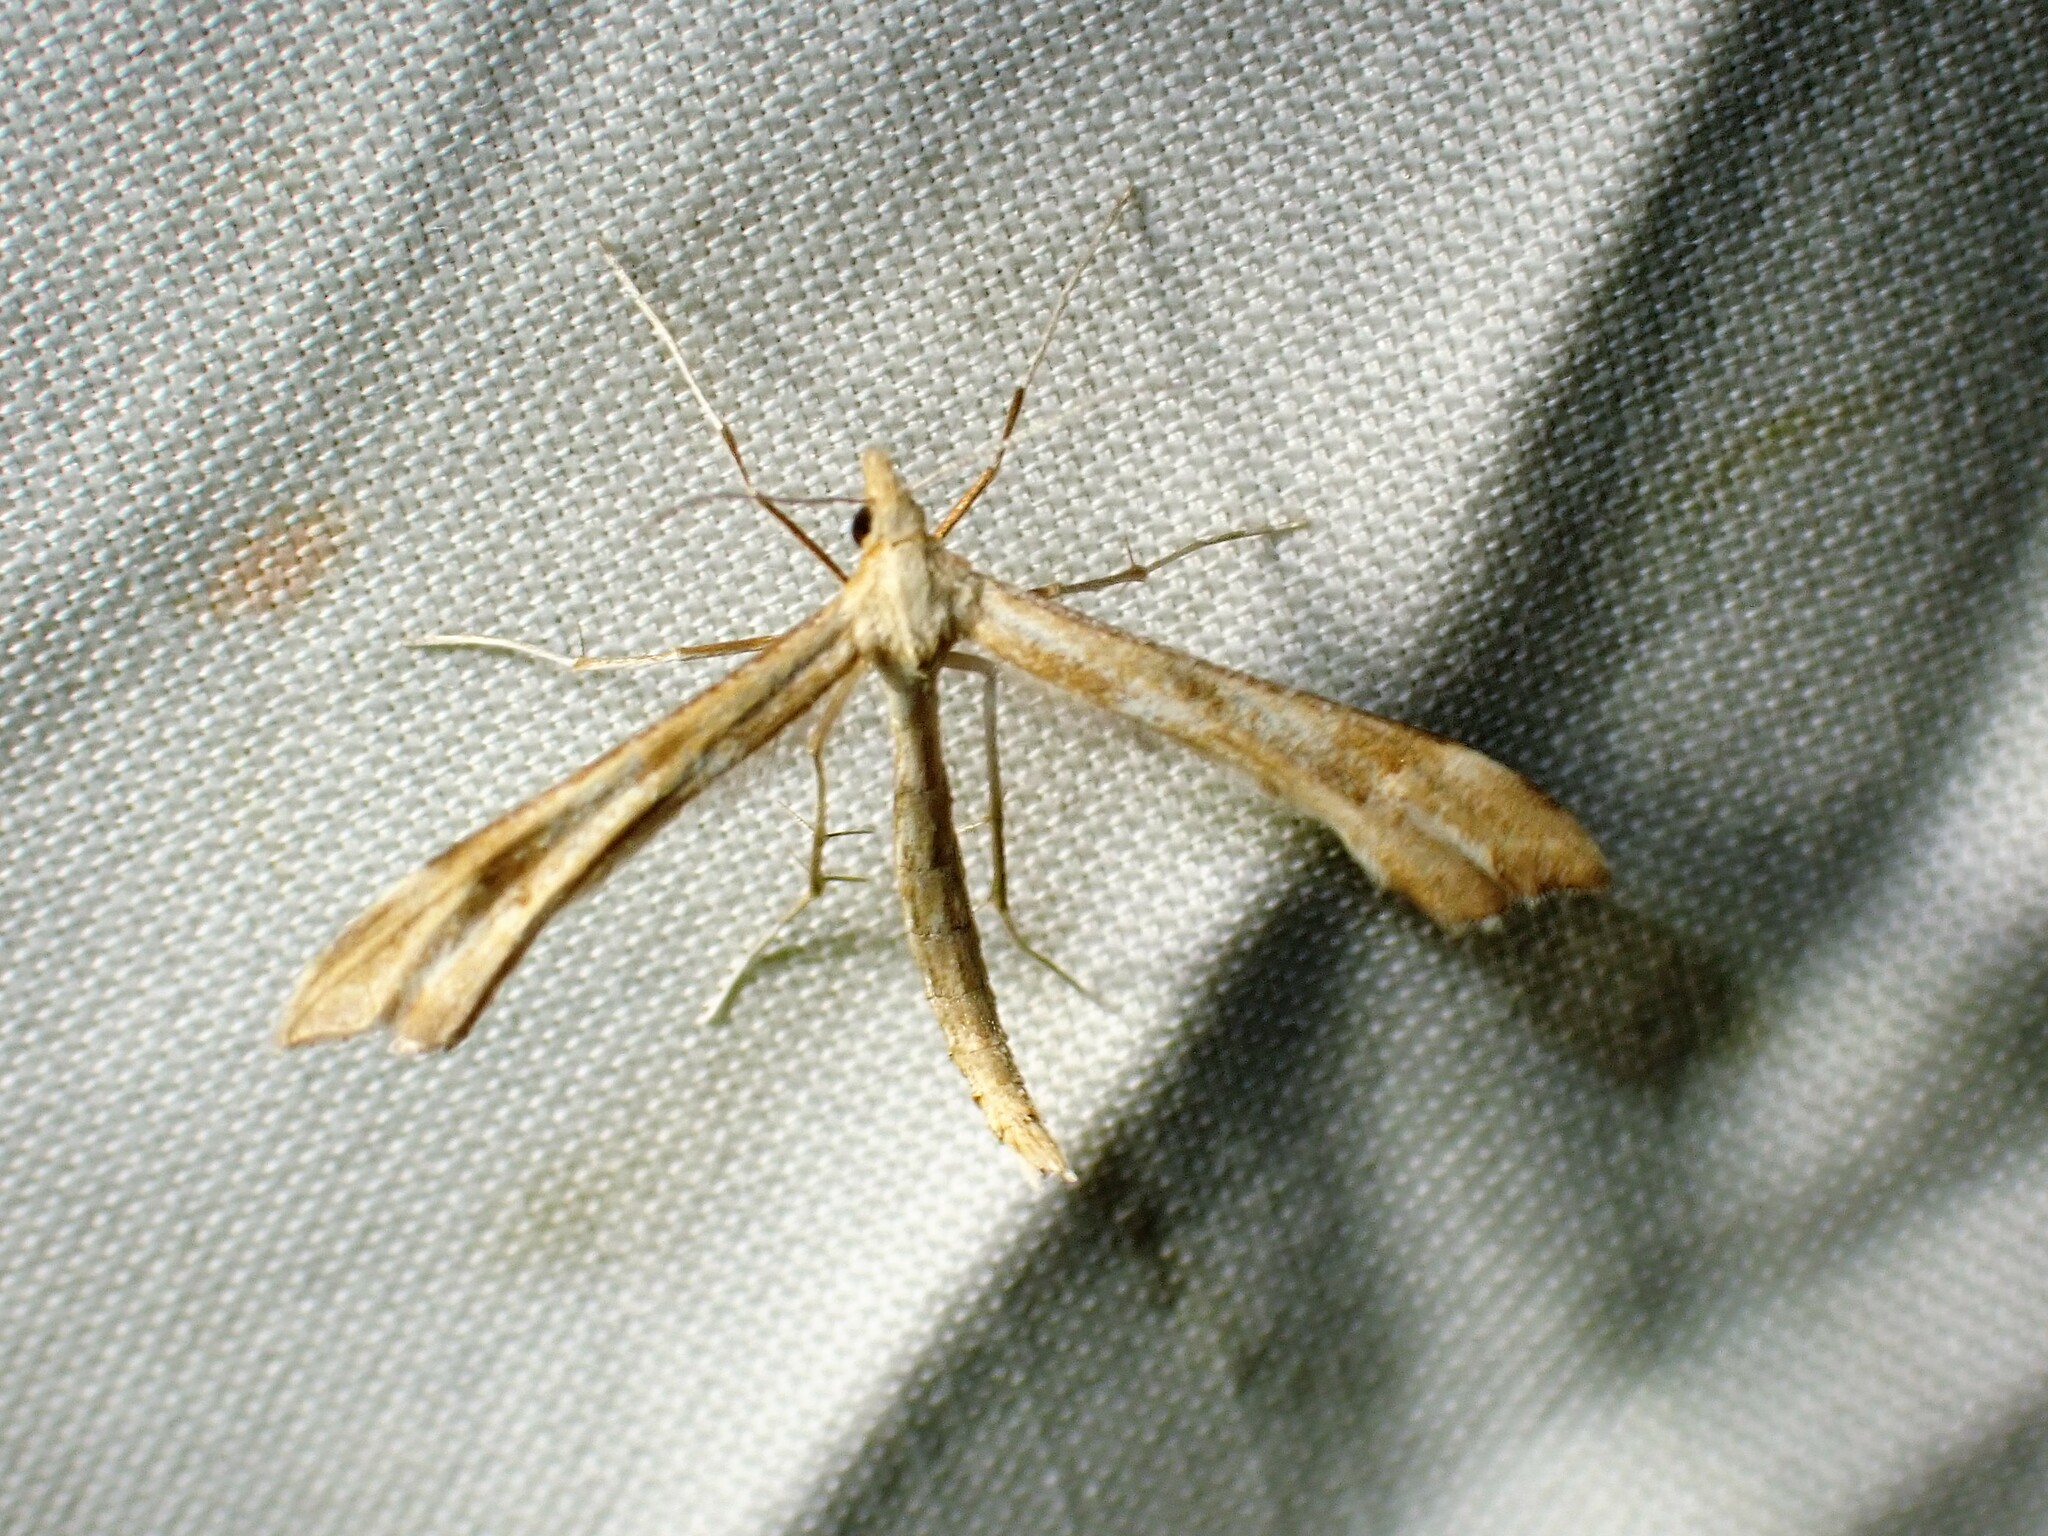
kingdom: Animalia
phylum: Arthropoda
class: Insecta
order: Lepidoptera
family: Pterophoridae
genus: Gillmeria
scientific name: Gillmeria pallidactyla
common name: Yarrow plume
